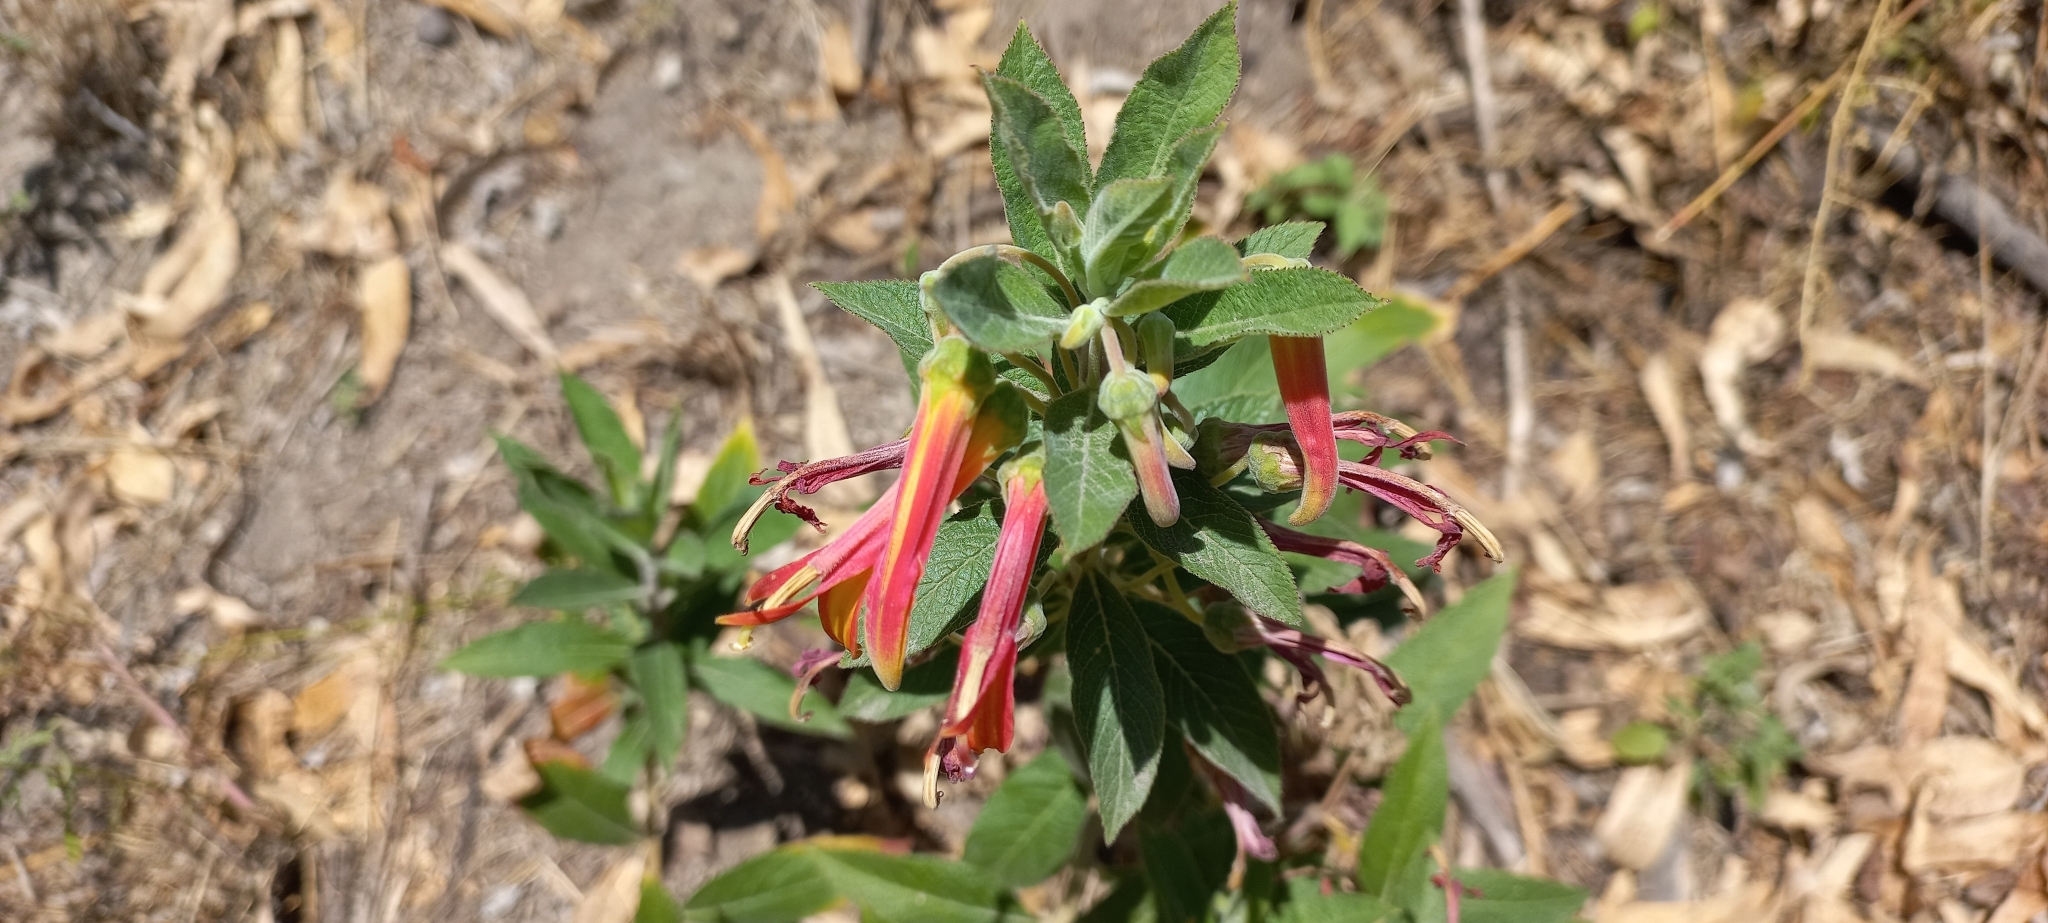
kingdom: Plantae
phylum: Tracheophyta
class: Magnoliopsida
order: Asterales
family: Campanulaceae
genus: Lobelia
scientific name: Lobelia laxiflora
